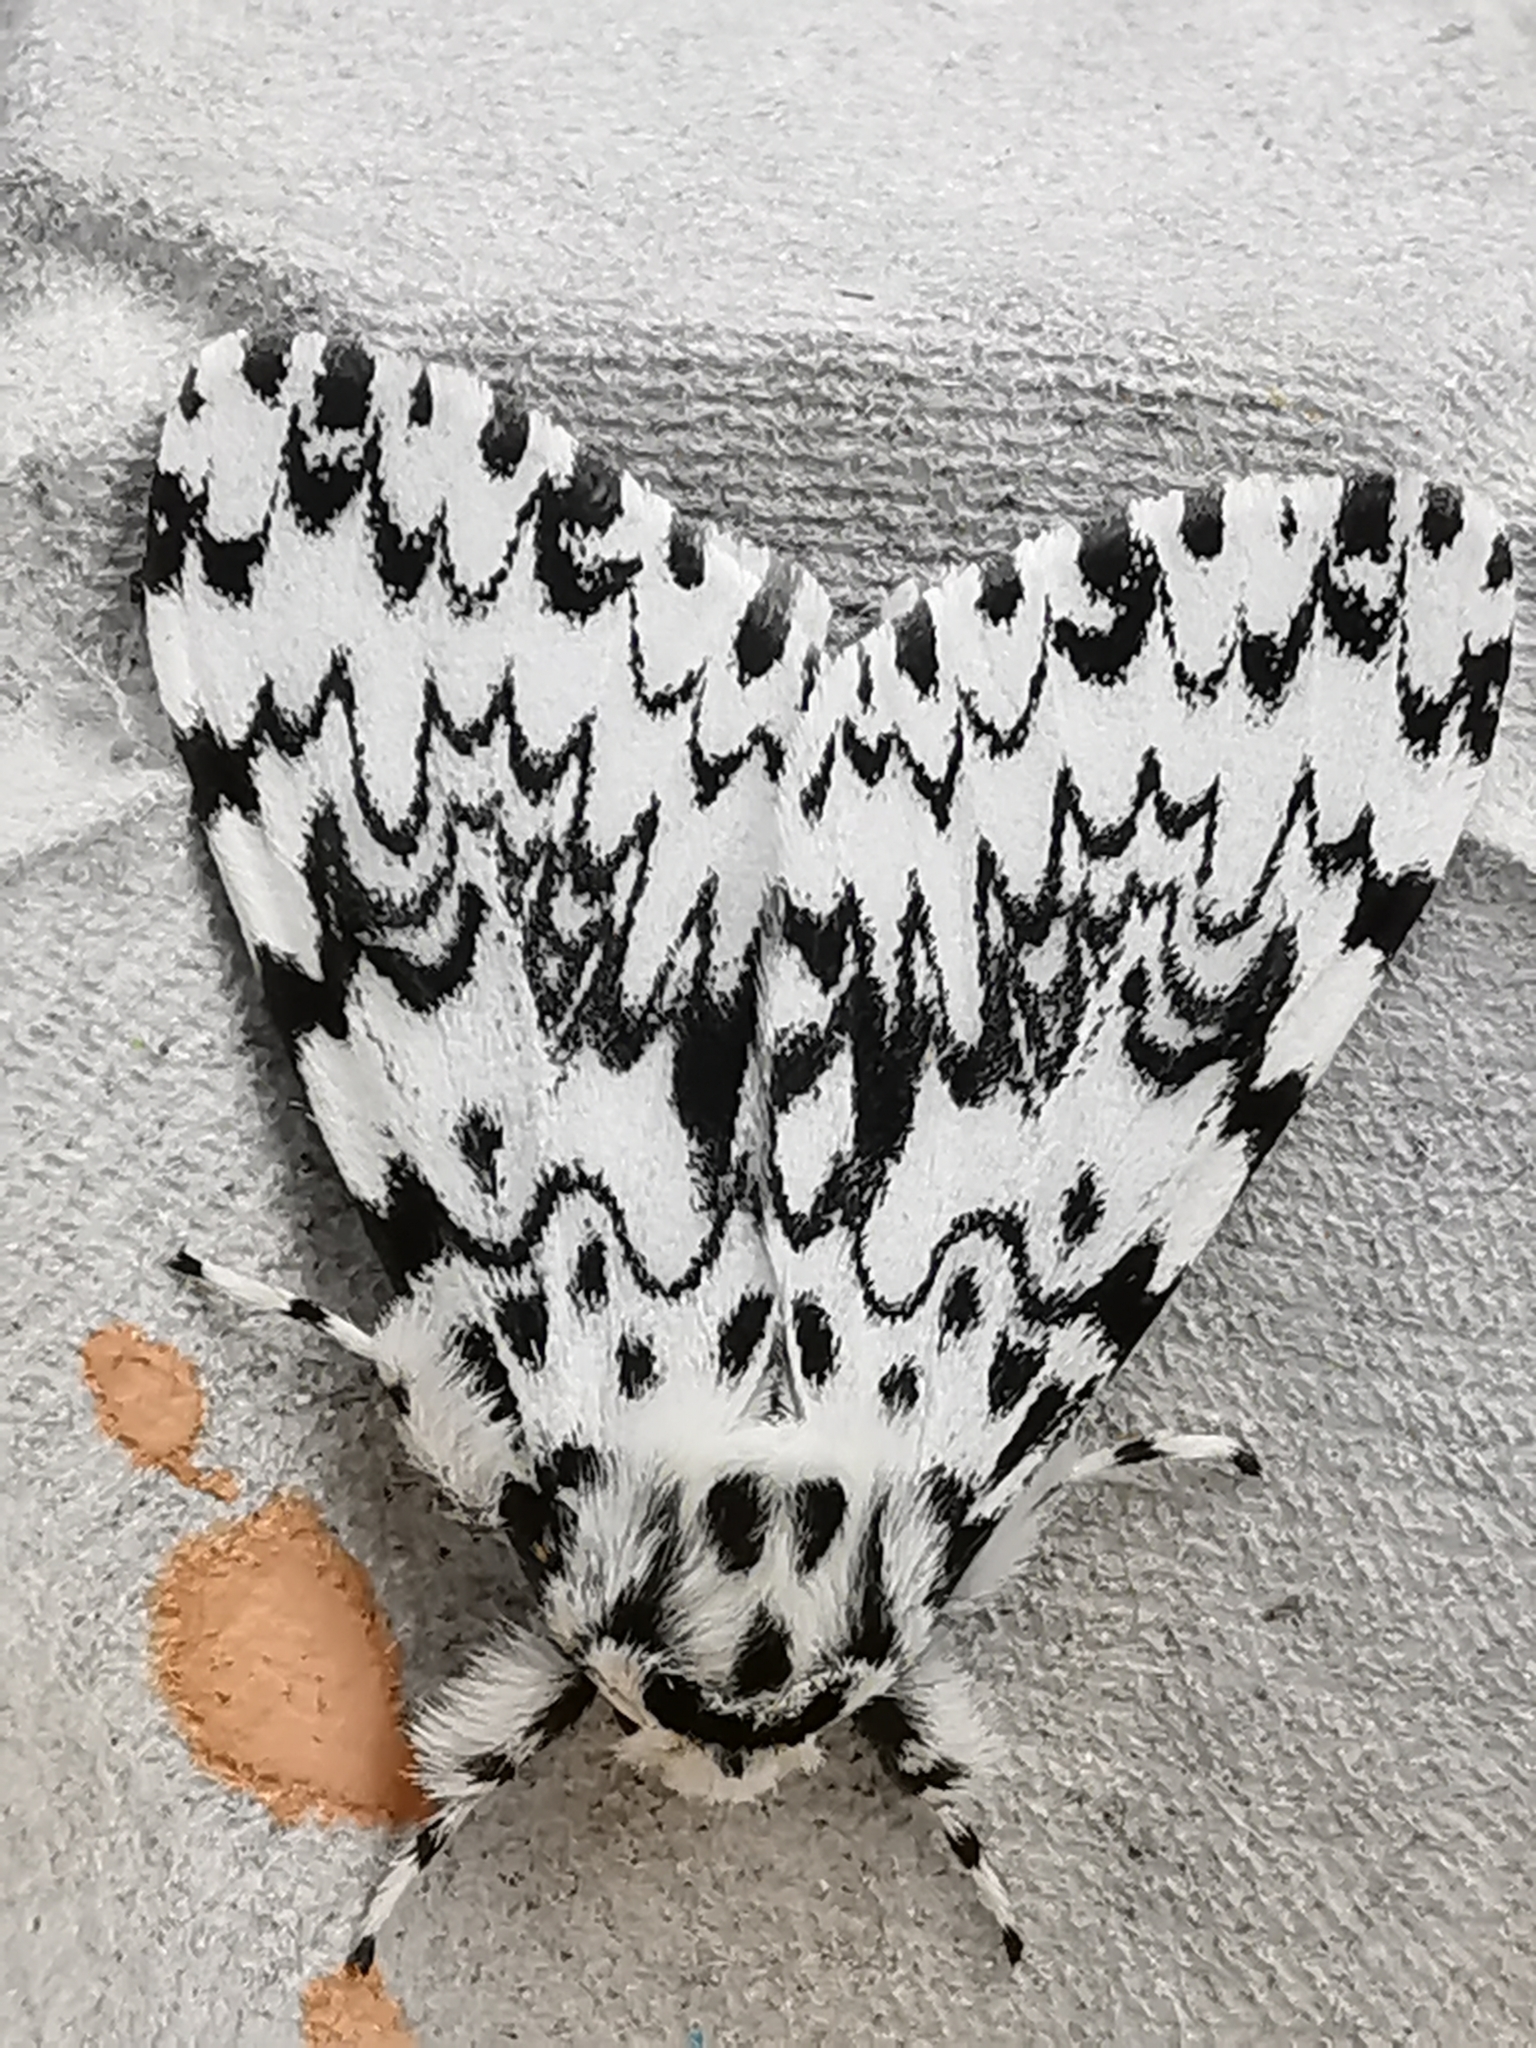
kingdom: Animalia
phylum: Arthropoda
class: Insecta
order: Lepidoptera
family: Erebidae
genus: Lymantria
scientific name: Lymantria monacha
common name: Black arches
